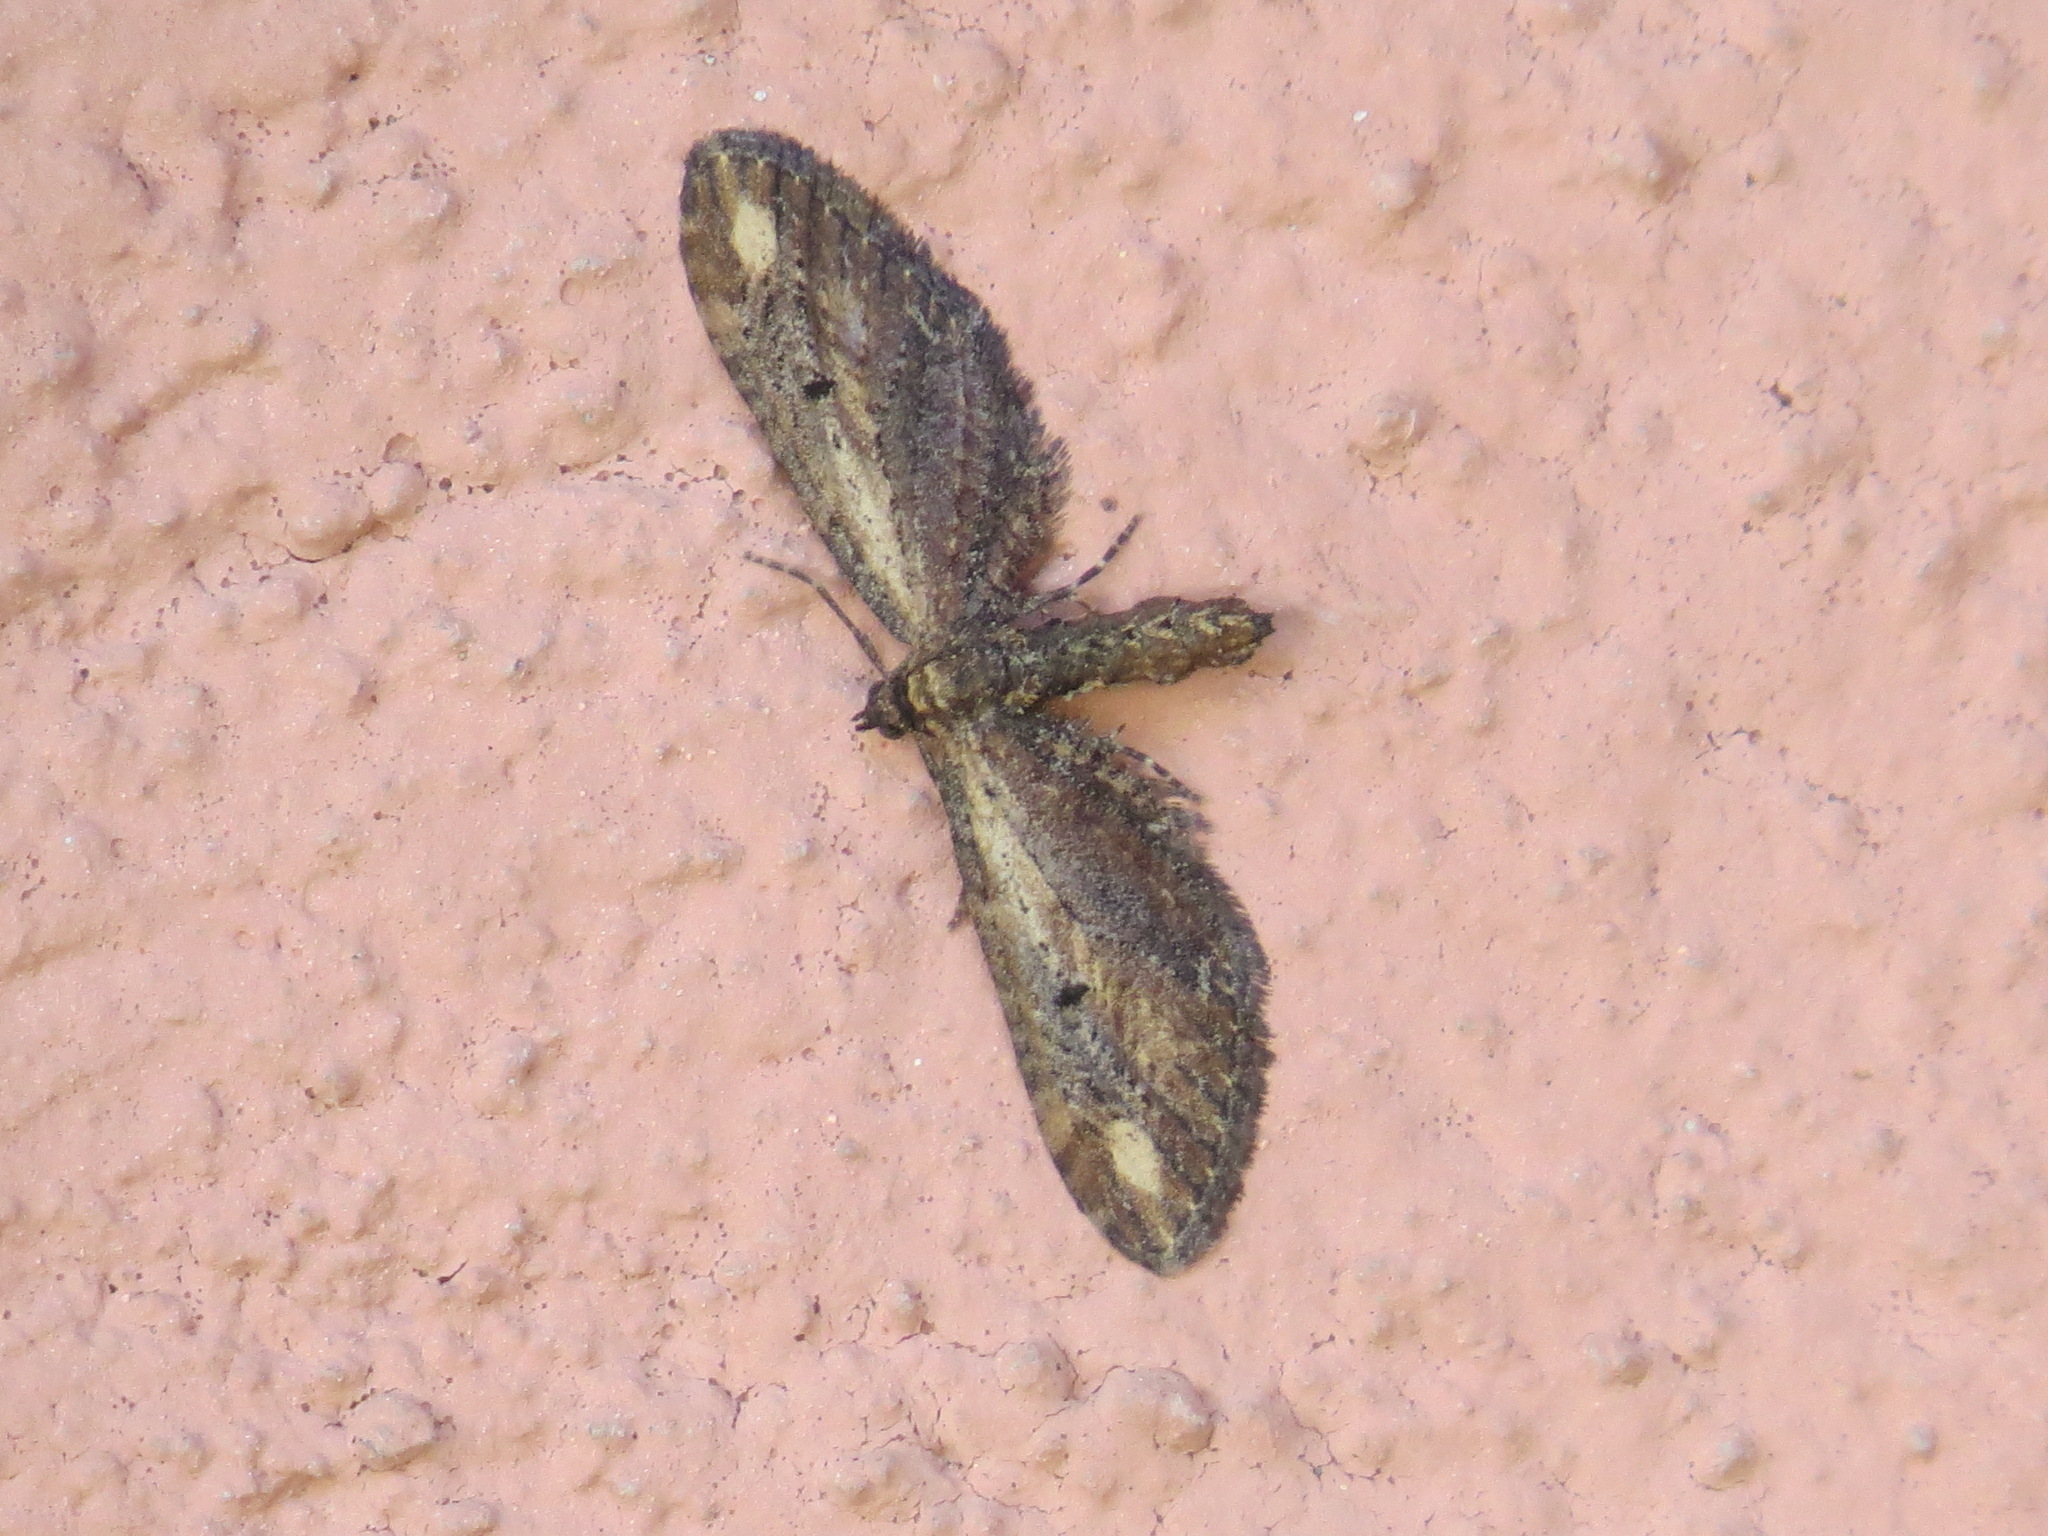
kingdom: Animalia
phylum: Arthropoda
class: Insecta
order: Lepidoptera
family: Geometridae
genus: Eupithecia
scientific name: Eupithecia subapicata
